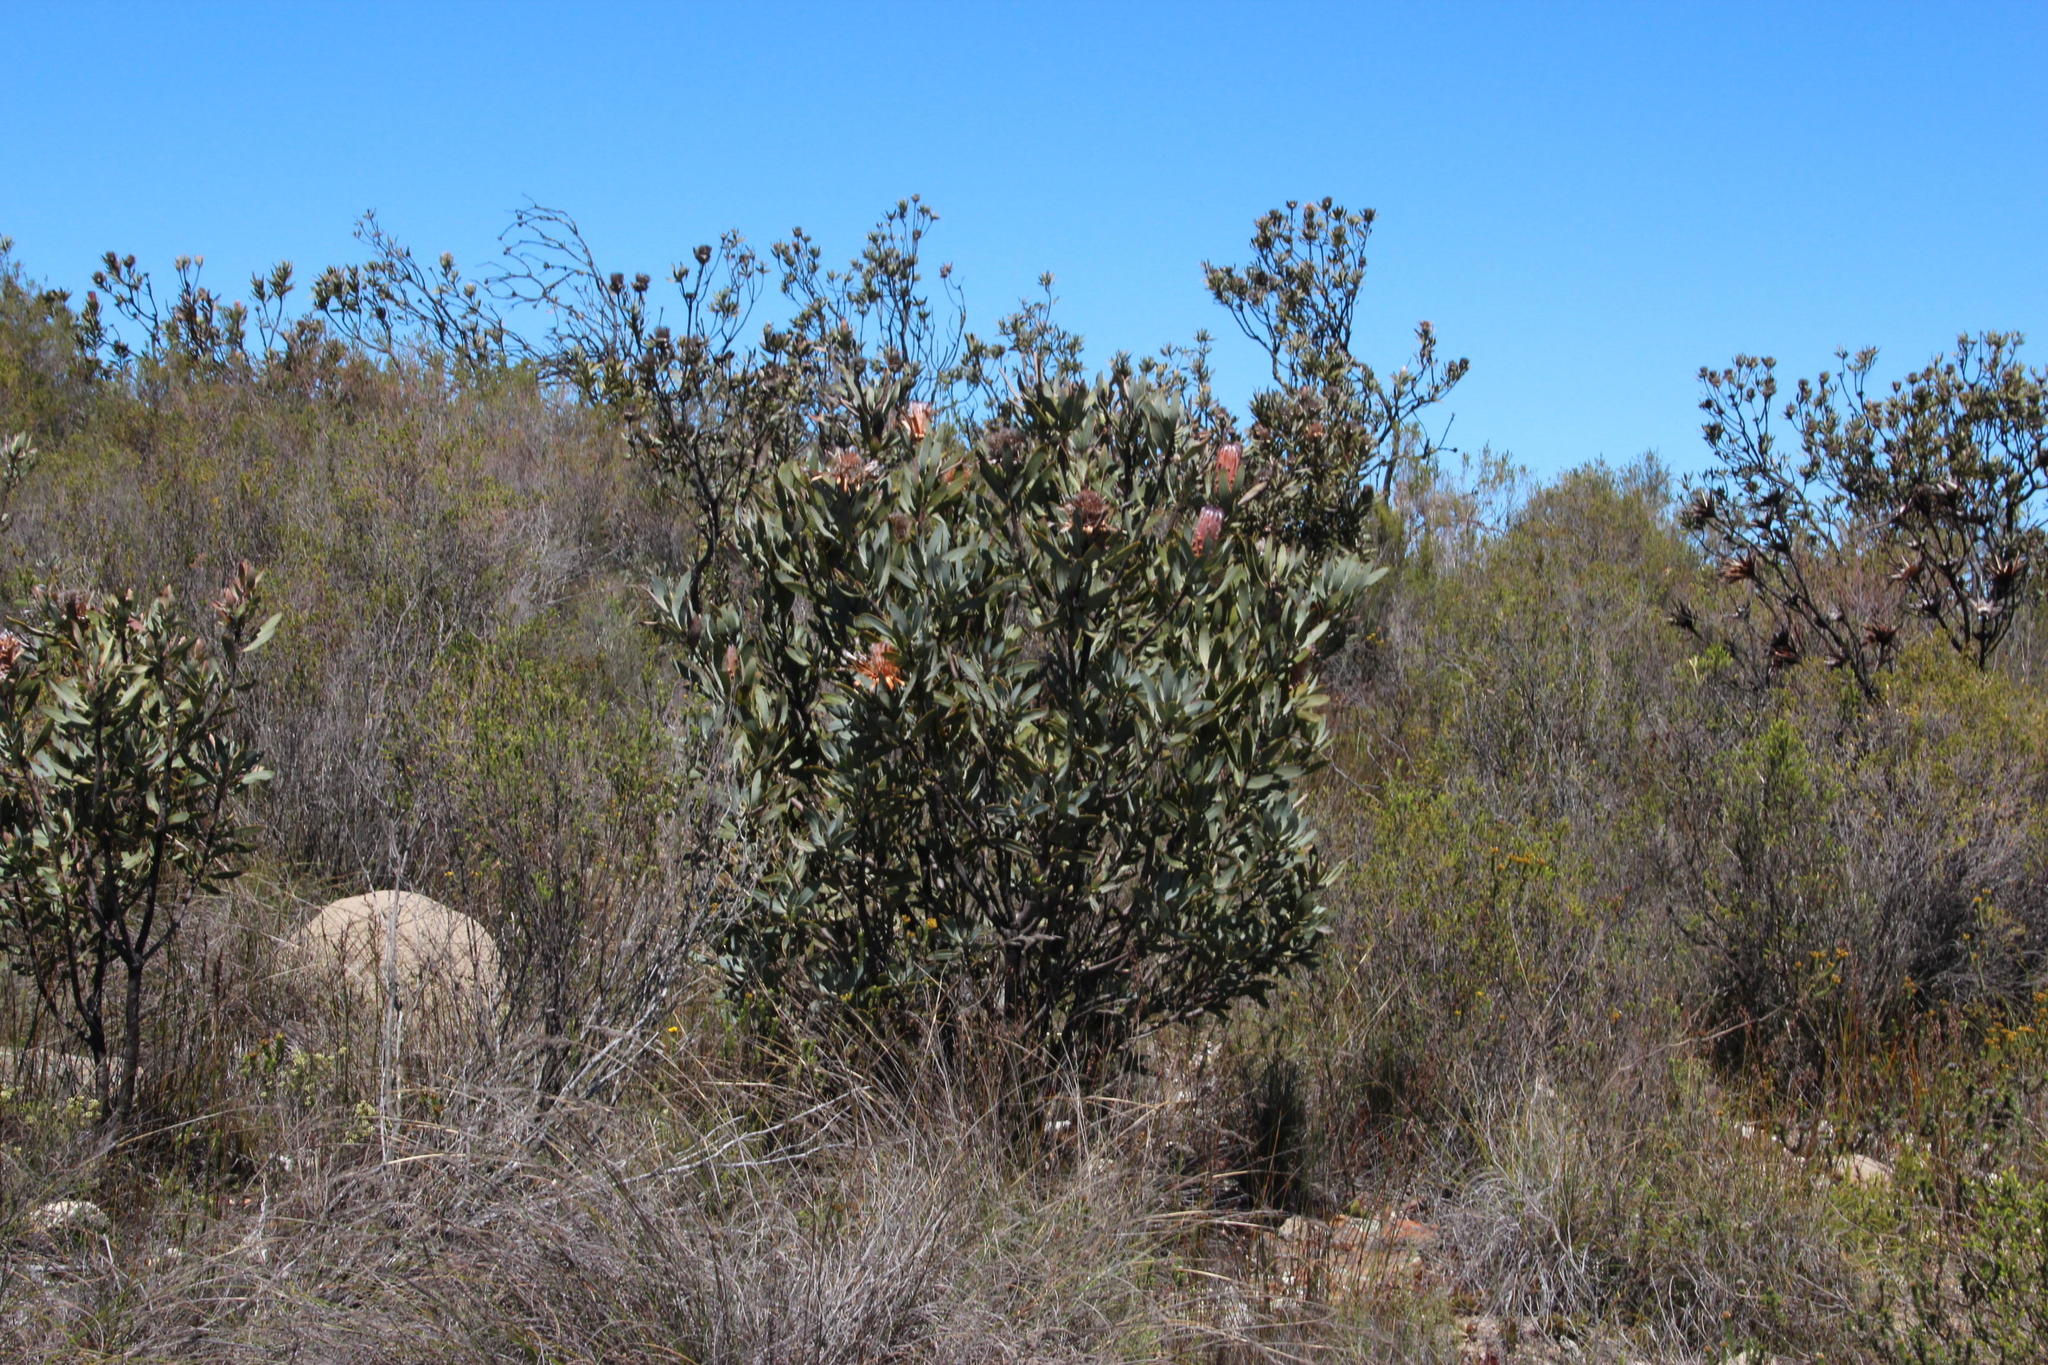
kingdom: Plantae
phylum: Tracheophyta
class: Magnoliopsida
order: Proteales
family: Proteaceae
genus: Protea
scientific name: Protea laurifolia
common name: Grey-leaf sugarbsh
